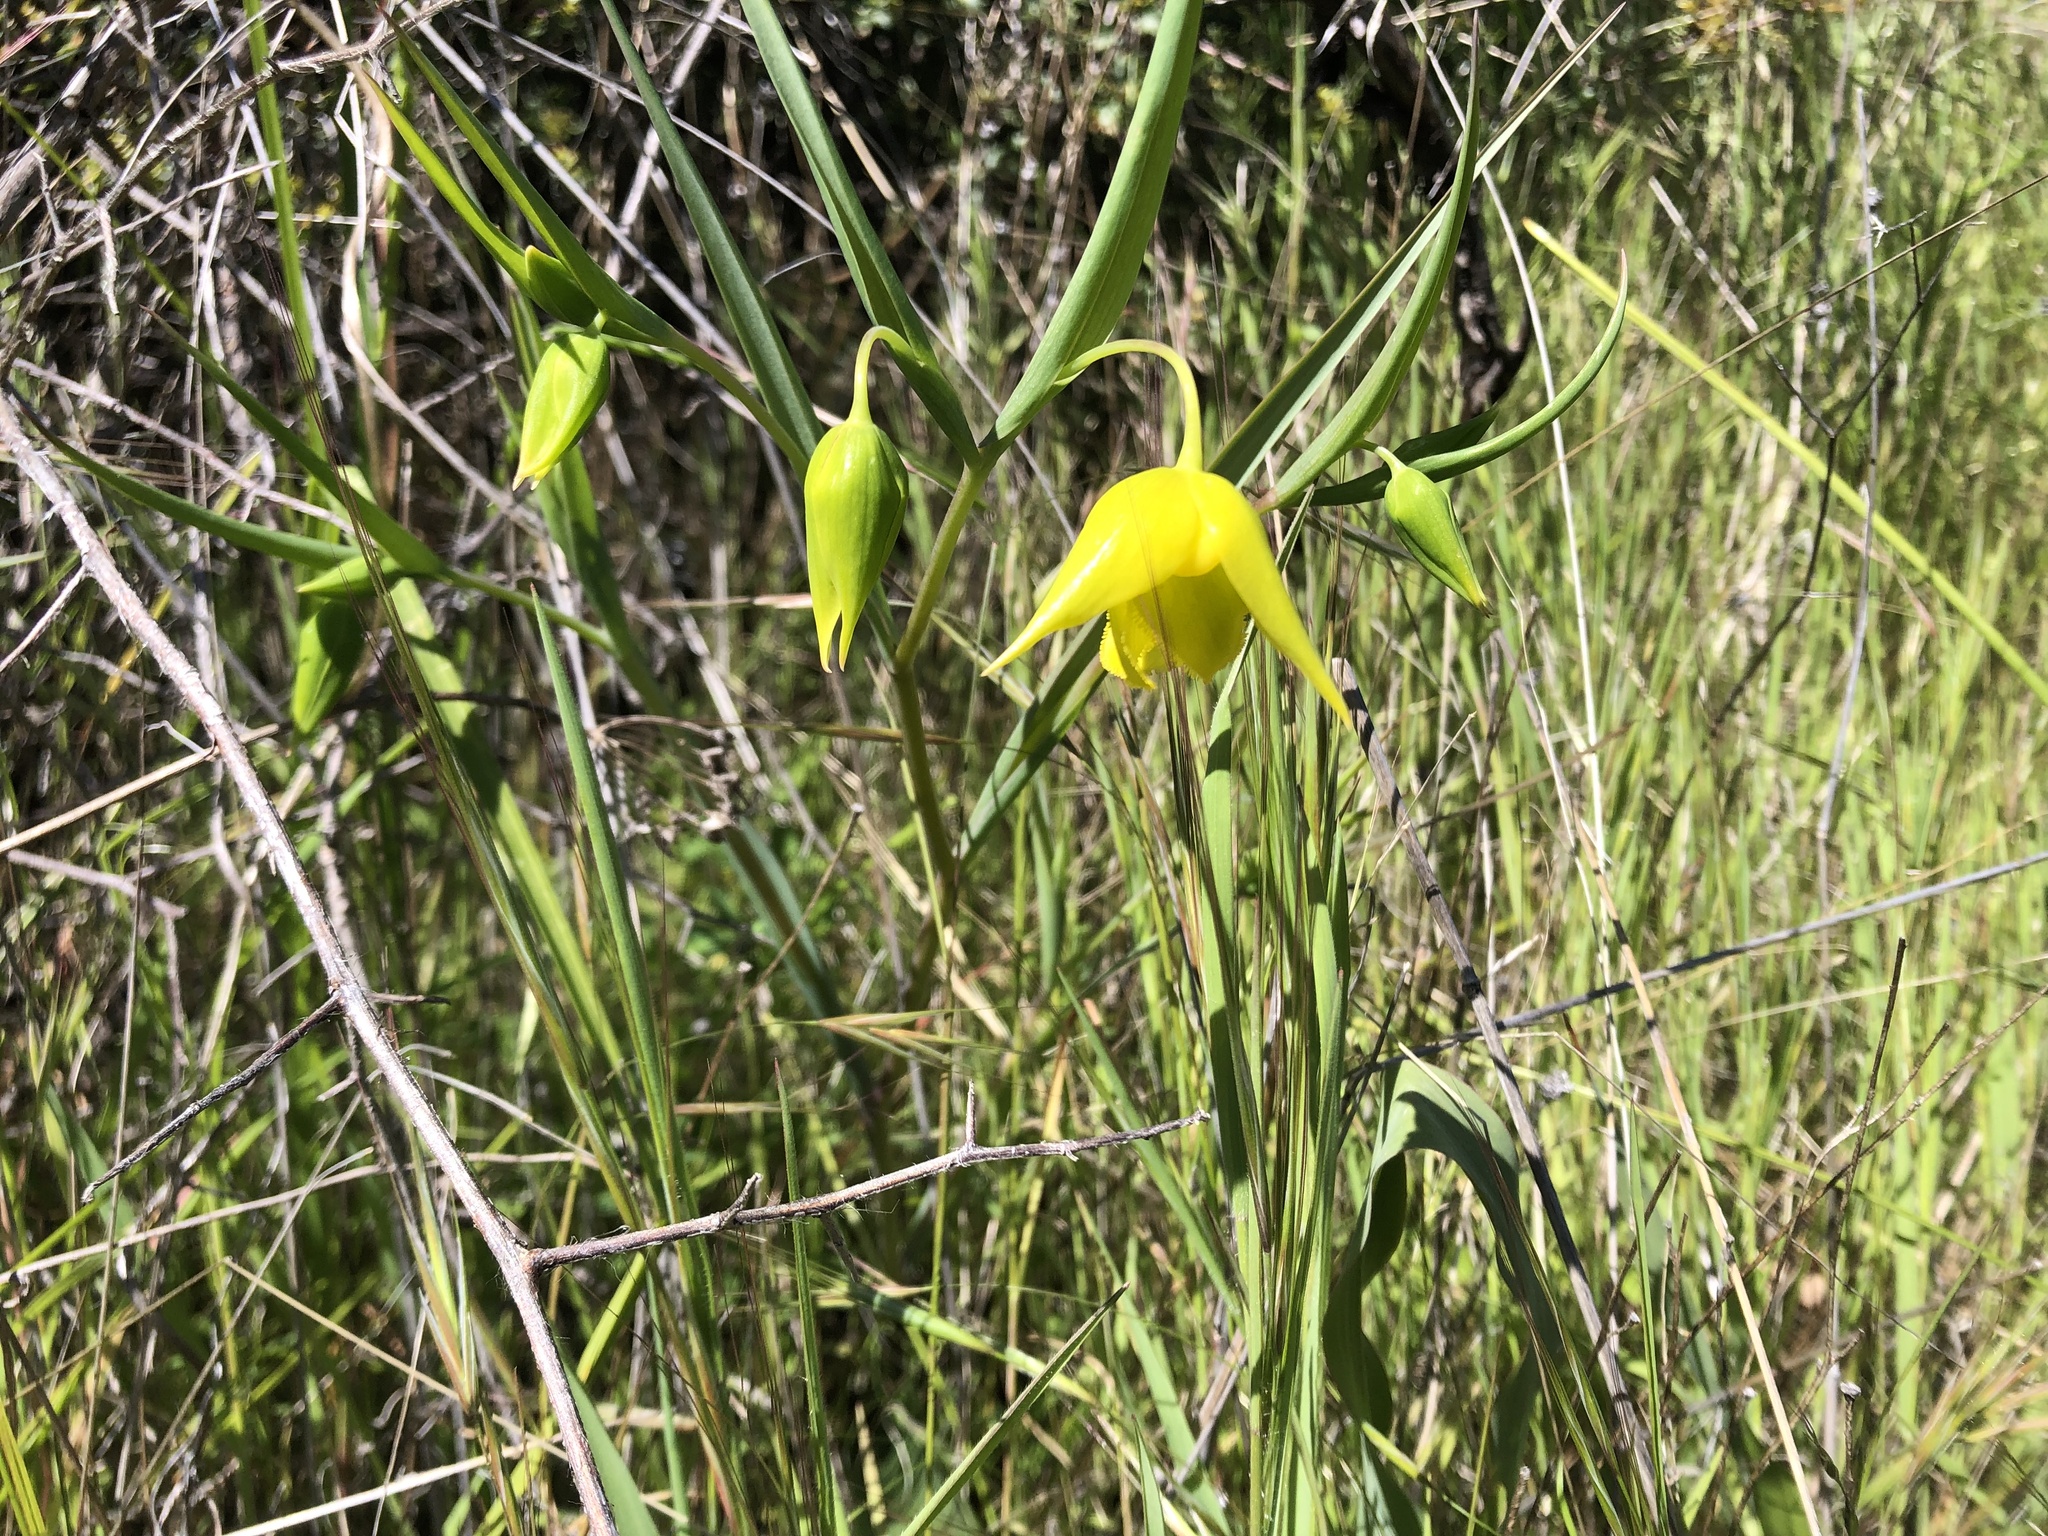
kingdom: Plantae
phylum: Tracheophyta
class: Liliopsida
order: Liliales
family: Liliaceae
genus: Calochortus
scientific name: Calochortus amabilis
